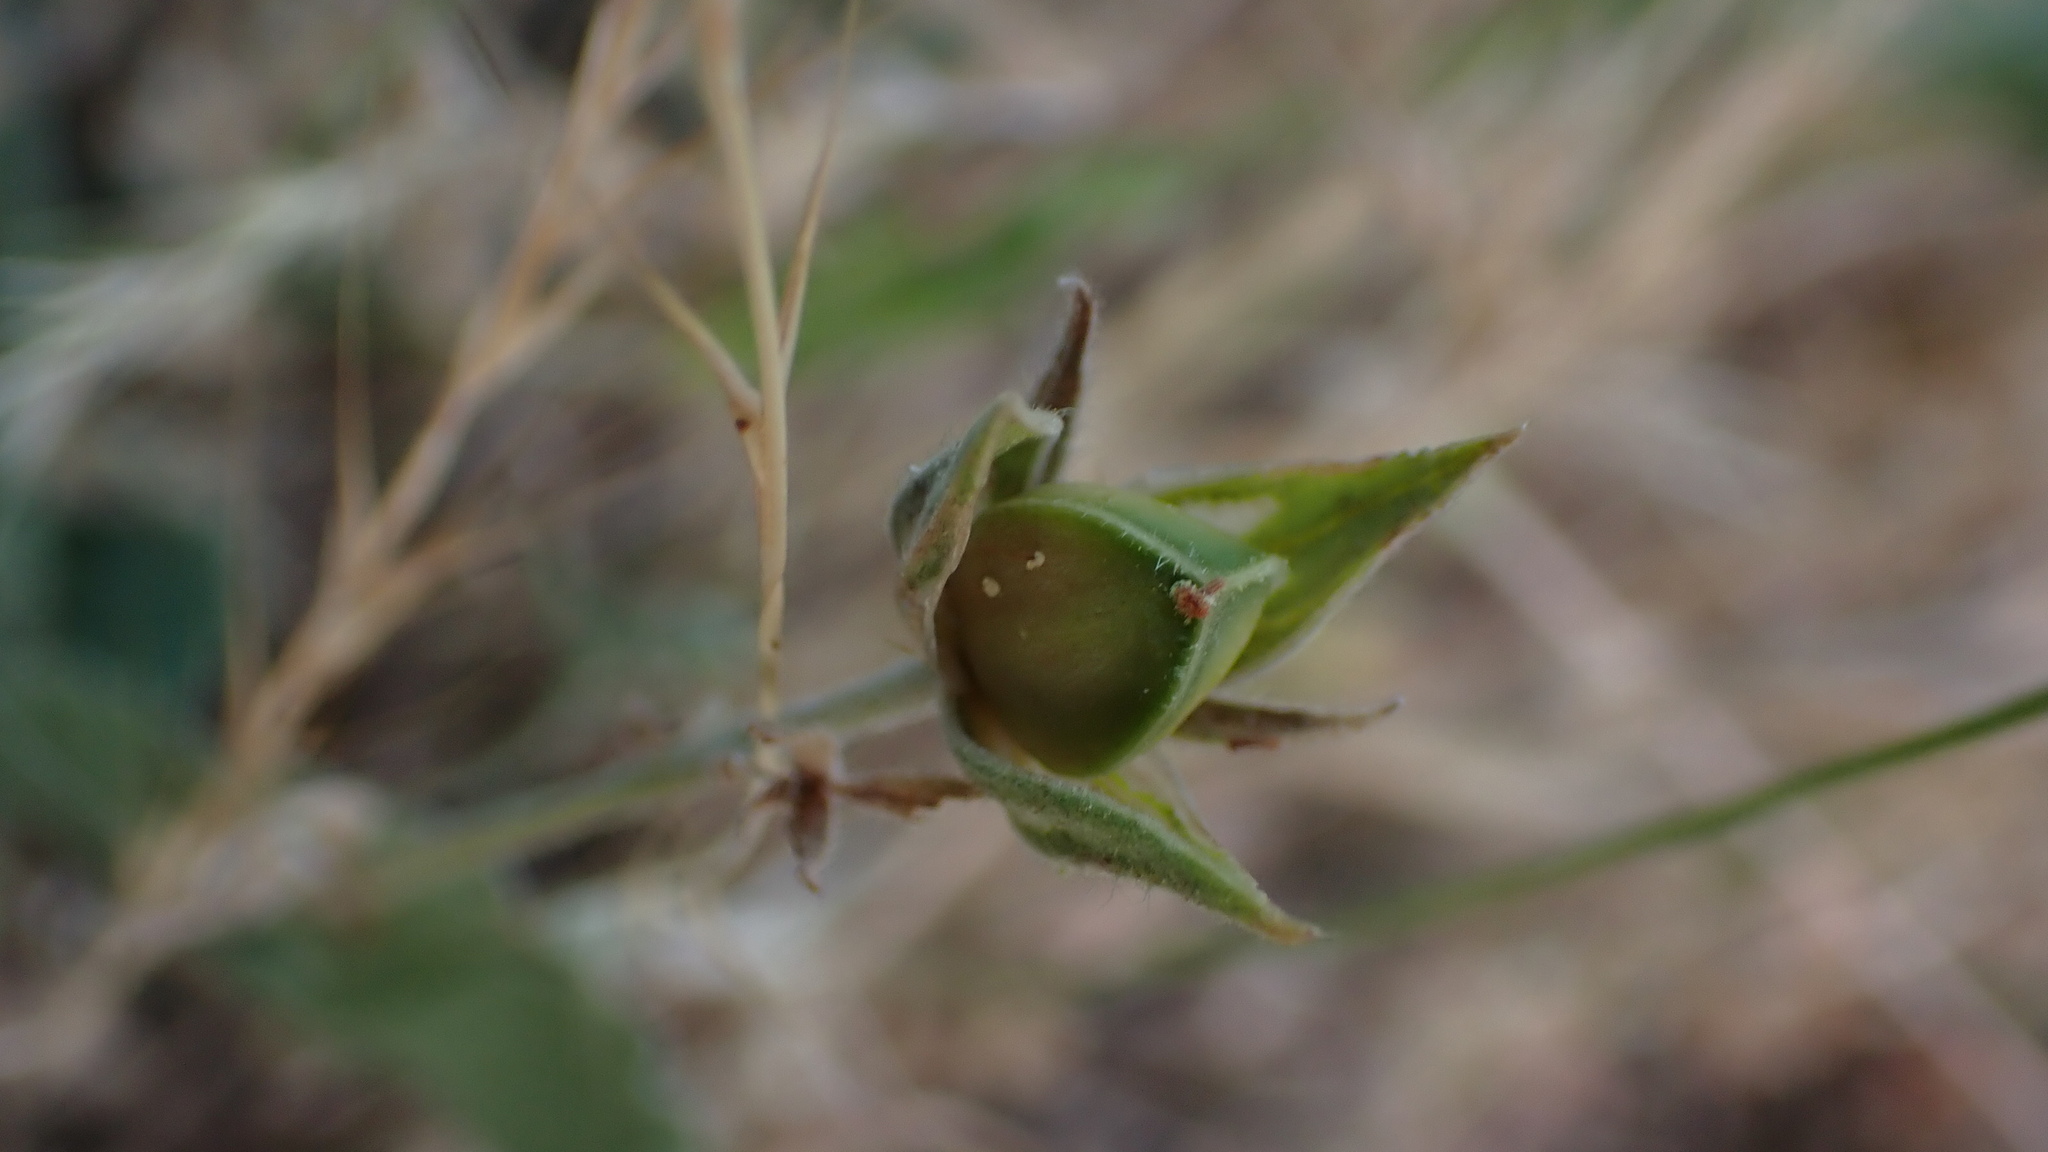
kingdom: Plantae
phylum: Tracheophyta
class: Magnoliopsida
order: Malvales
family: Cistaceae
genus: Helianthemum
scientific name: Helianthemum ledifolium
